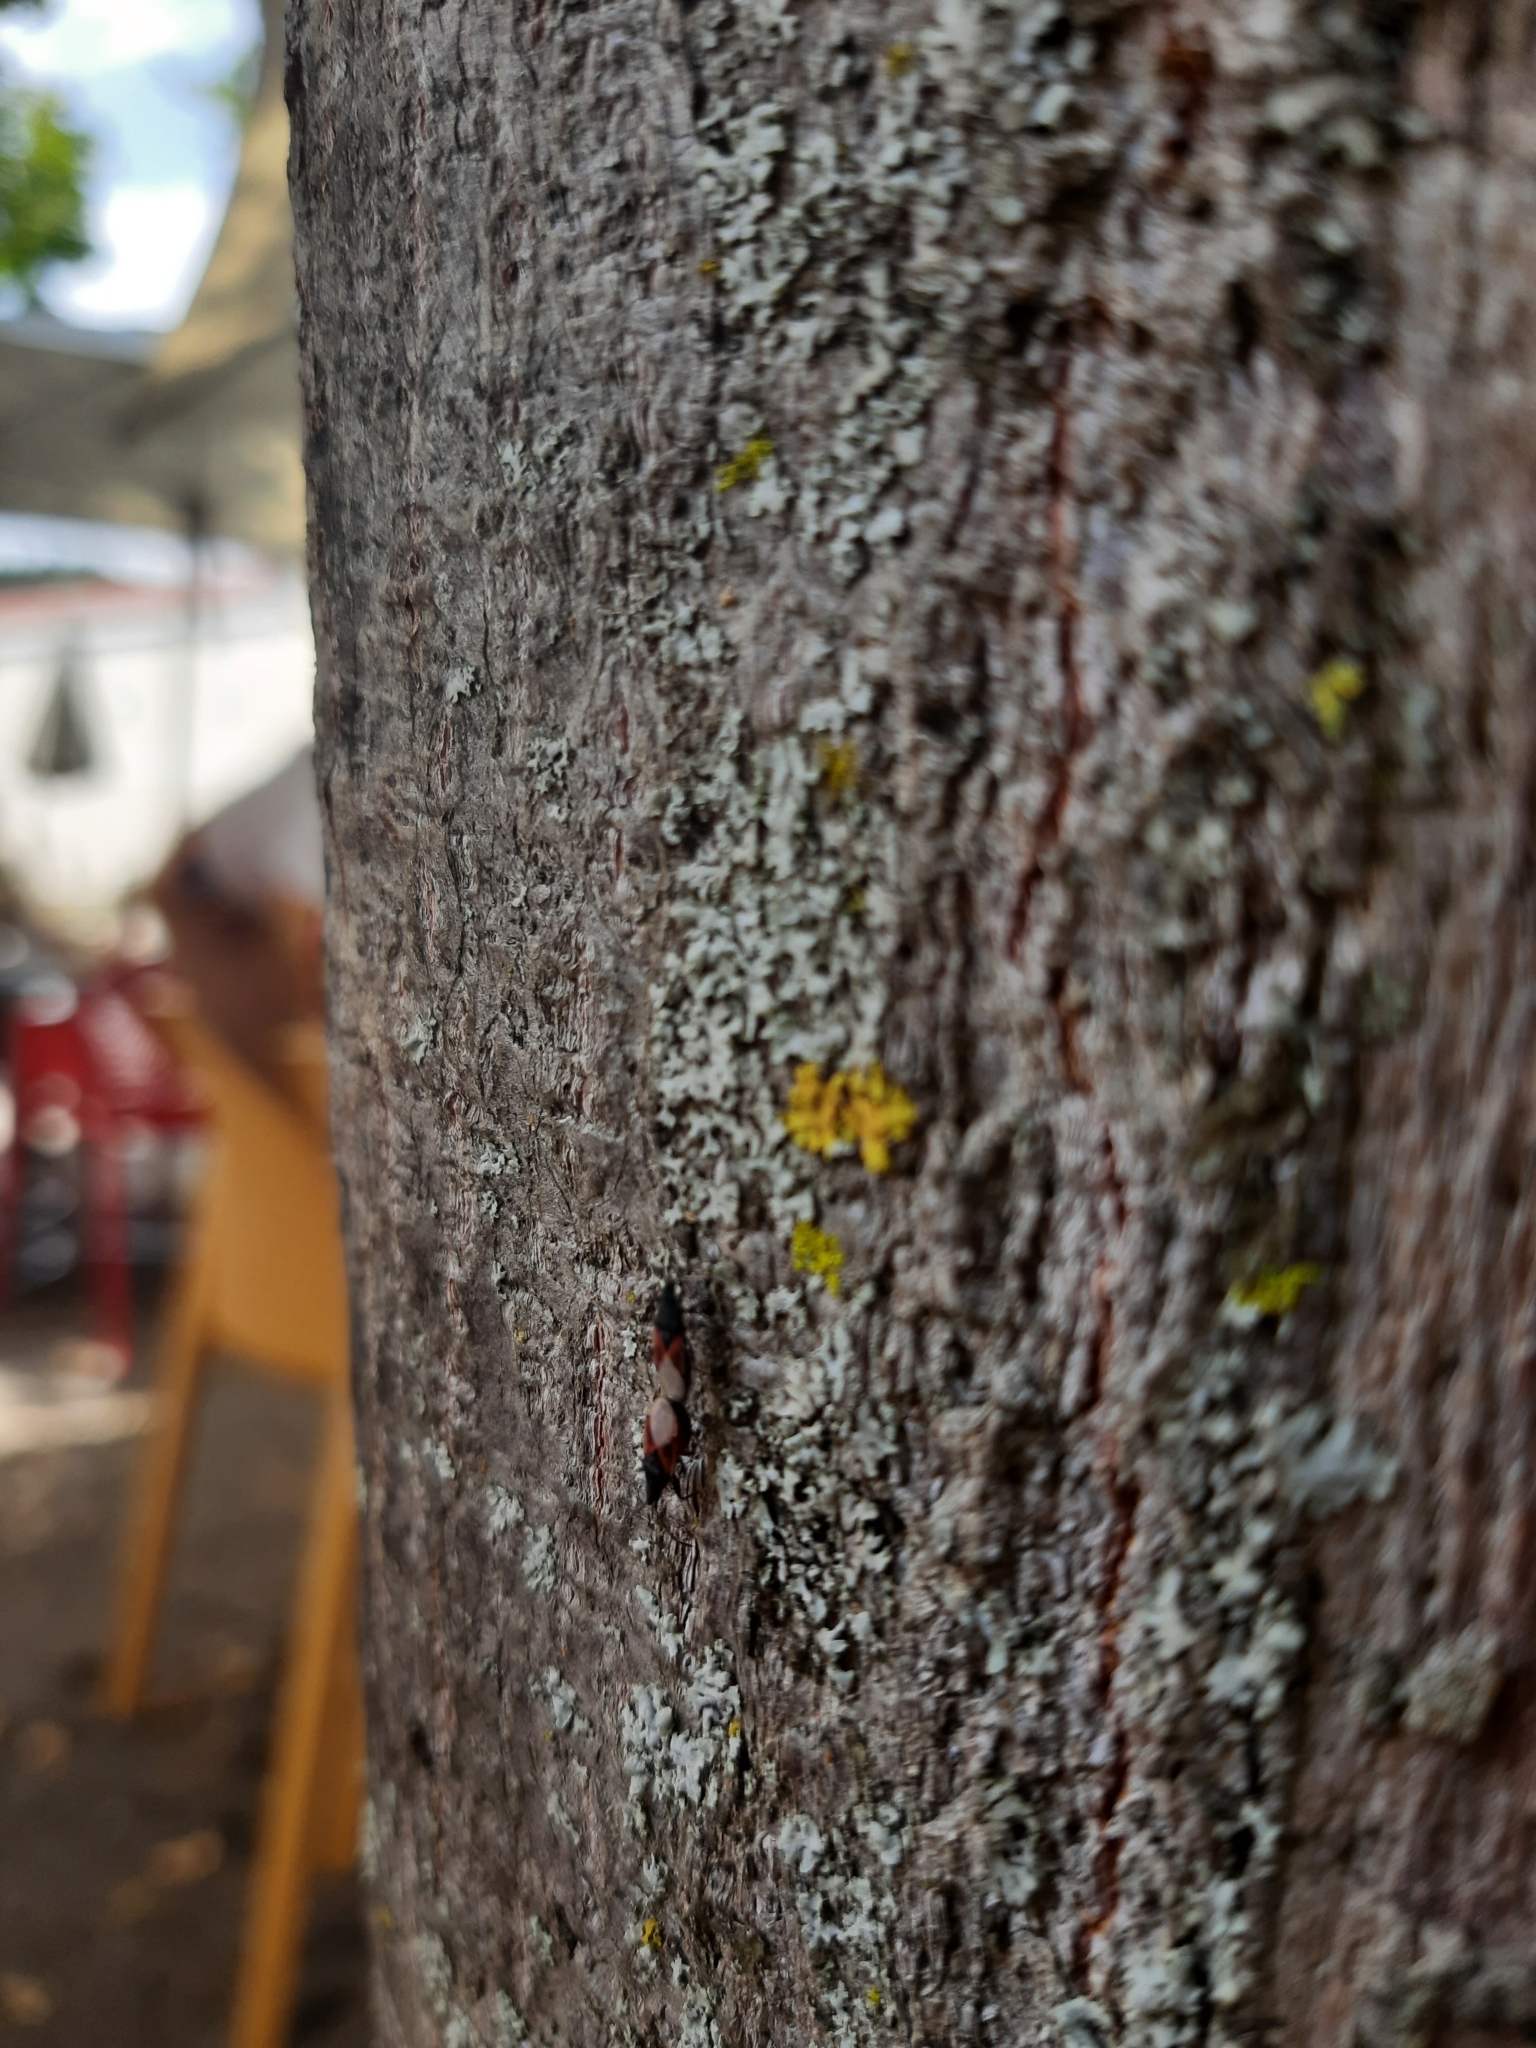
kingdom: Animalia
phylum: Arthropoda
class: Insecta
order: Hemiptera
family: Oxycarenidae
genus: Oxycarenus
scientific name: Oxycarenus lavaterae
